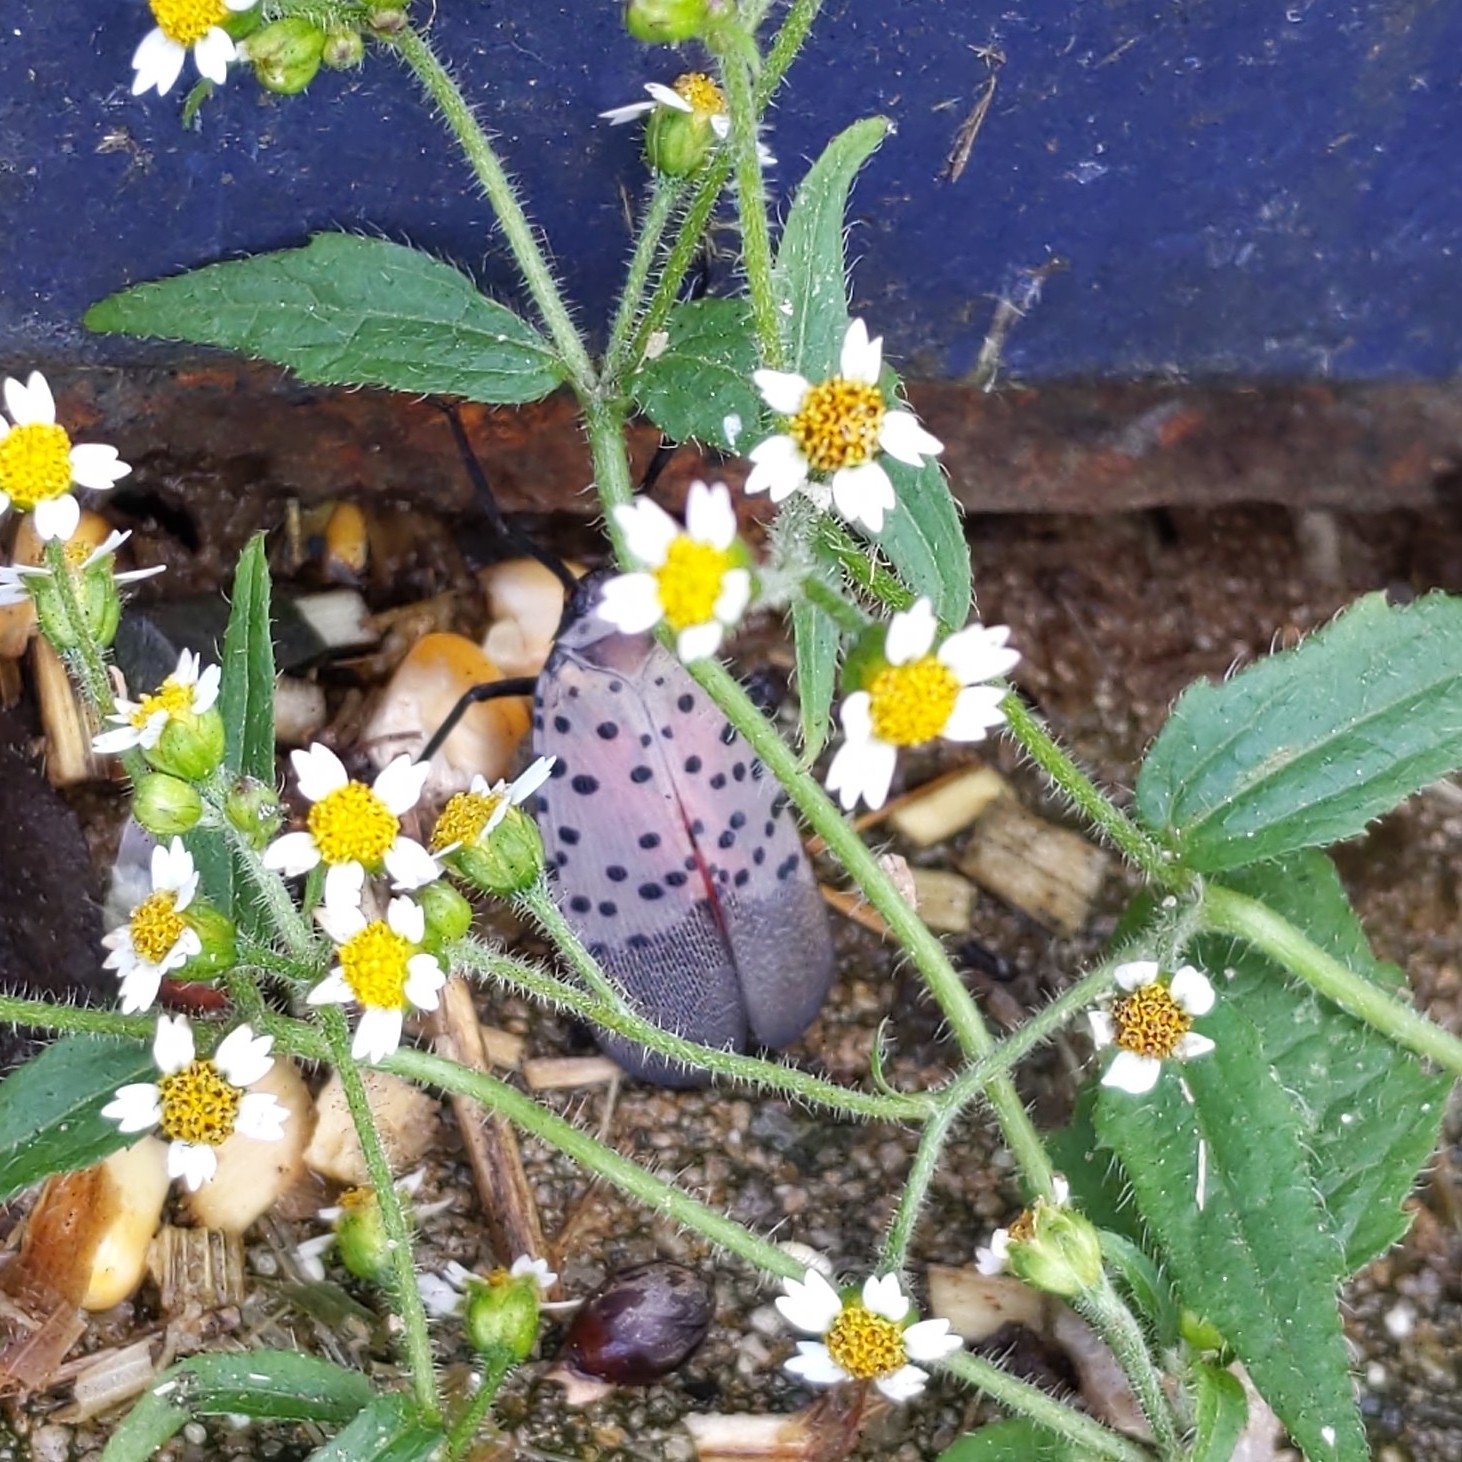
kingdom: Animalia
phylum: Arthropoda
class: Insecta
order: Hemiptera
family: Fulgoridae
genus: Lycorma
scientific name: Lycorma delicatula
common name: Spotted lanternfly
